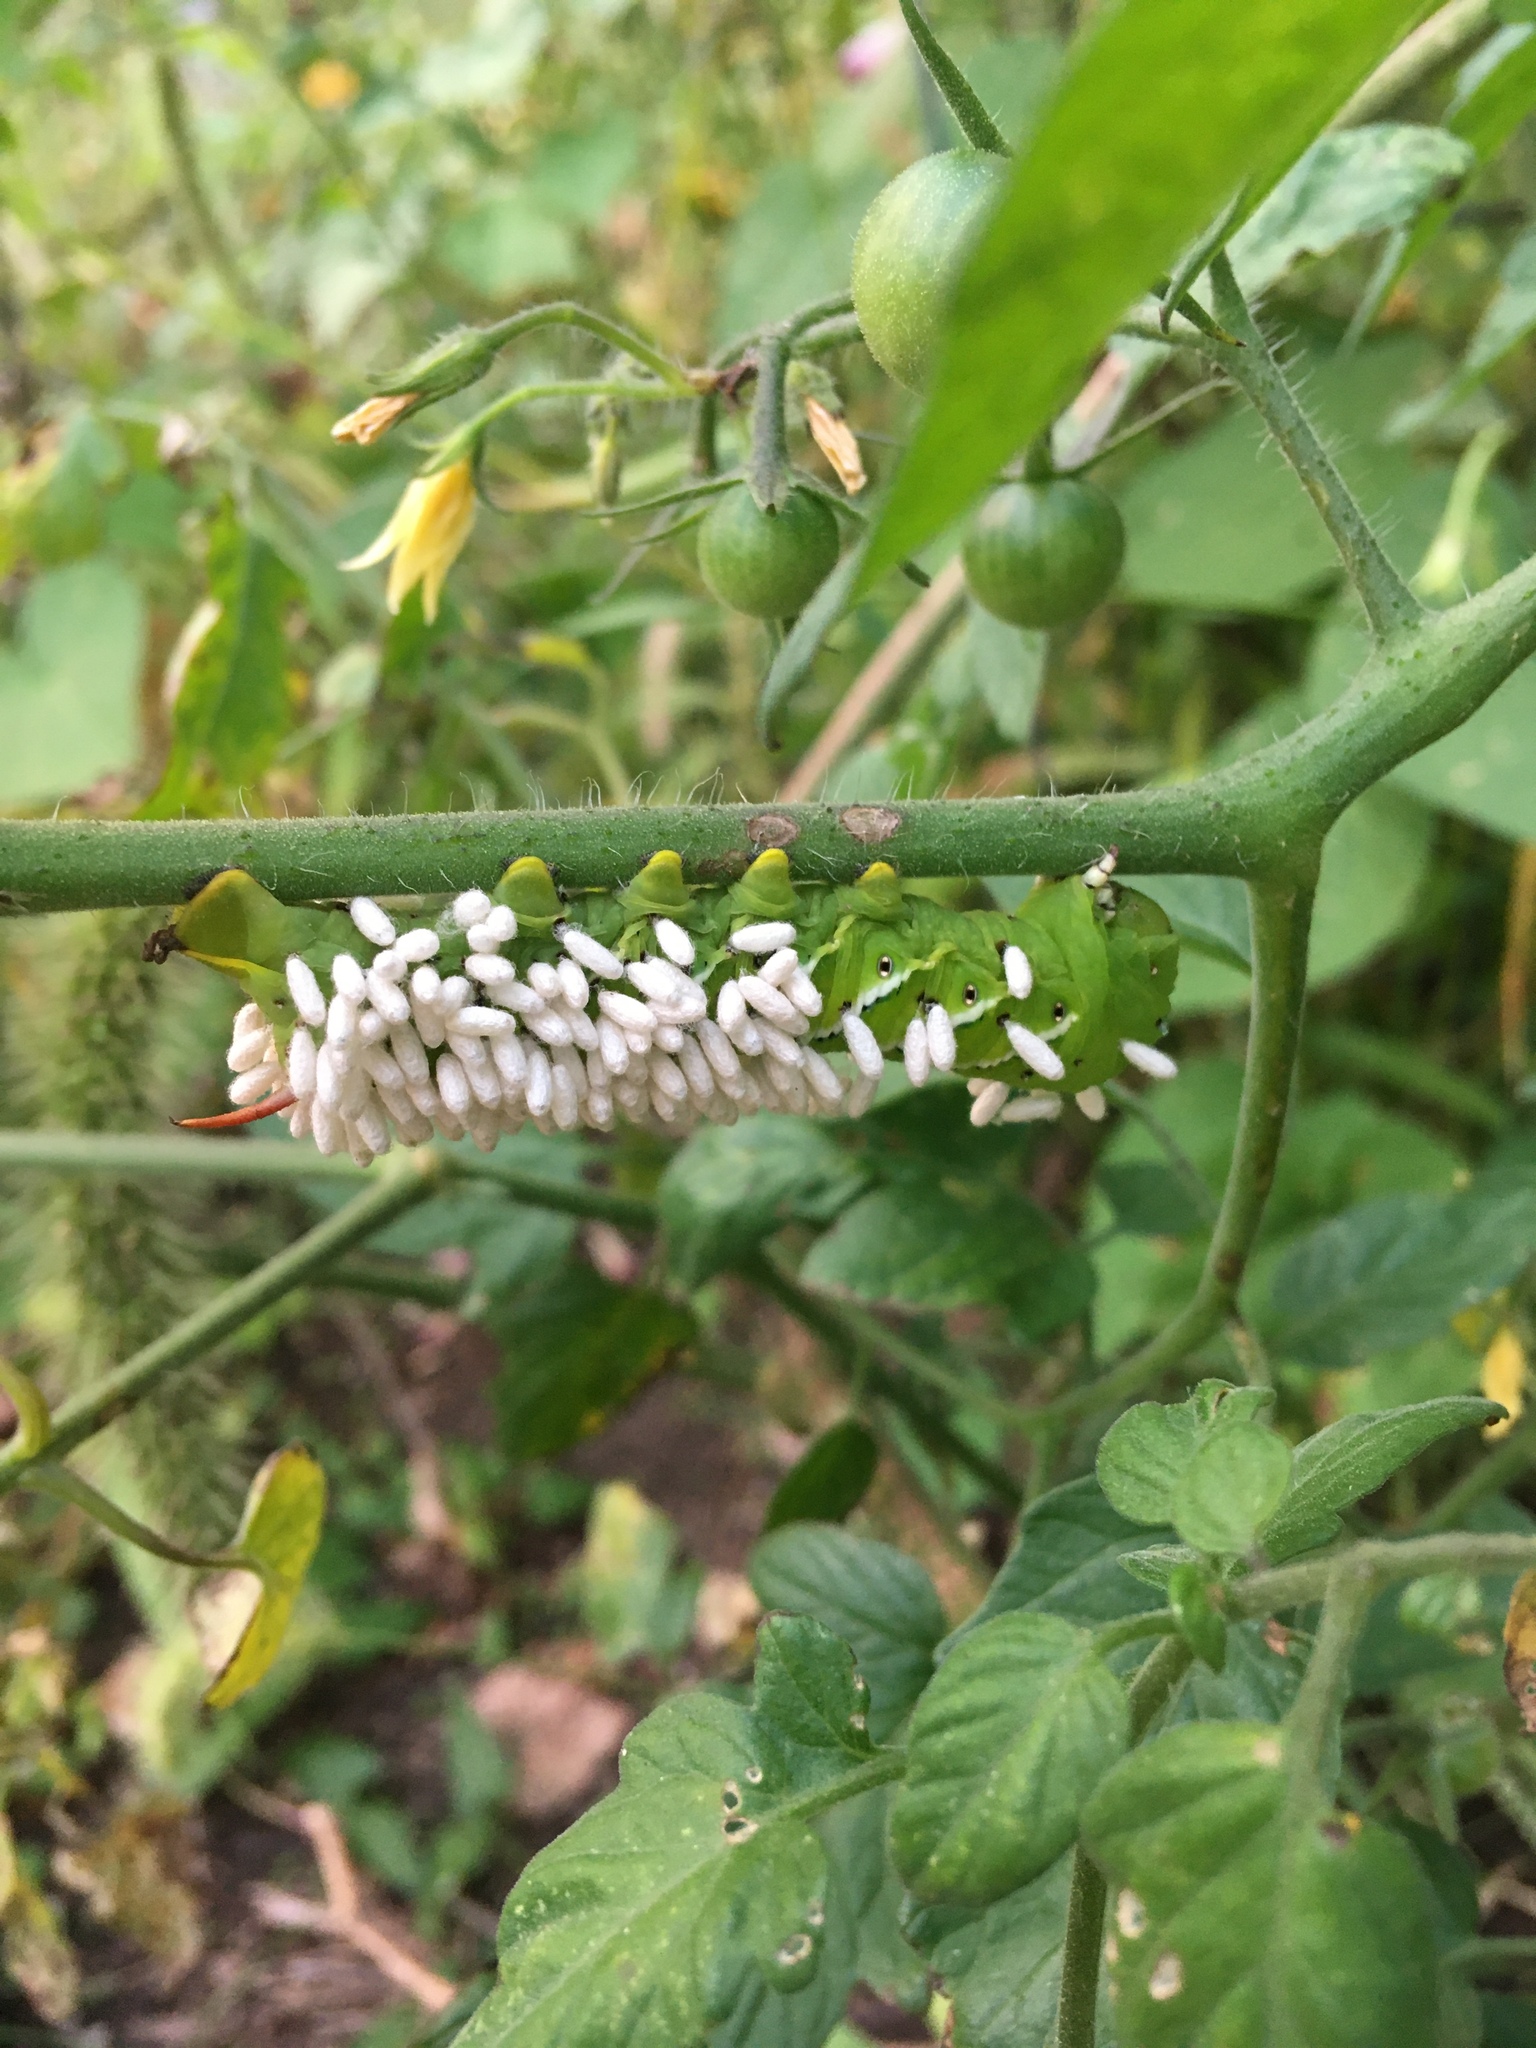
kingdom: Animalia
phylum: Arthropoda
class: Insecta
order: Lepidoptera
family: Sphingidae
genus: Manduca
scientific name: Manduca sexta
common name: Carolina sphinx
